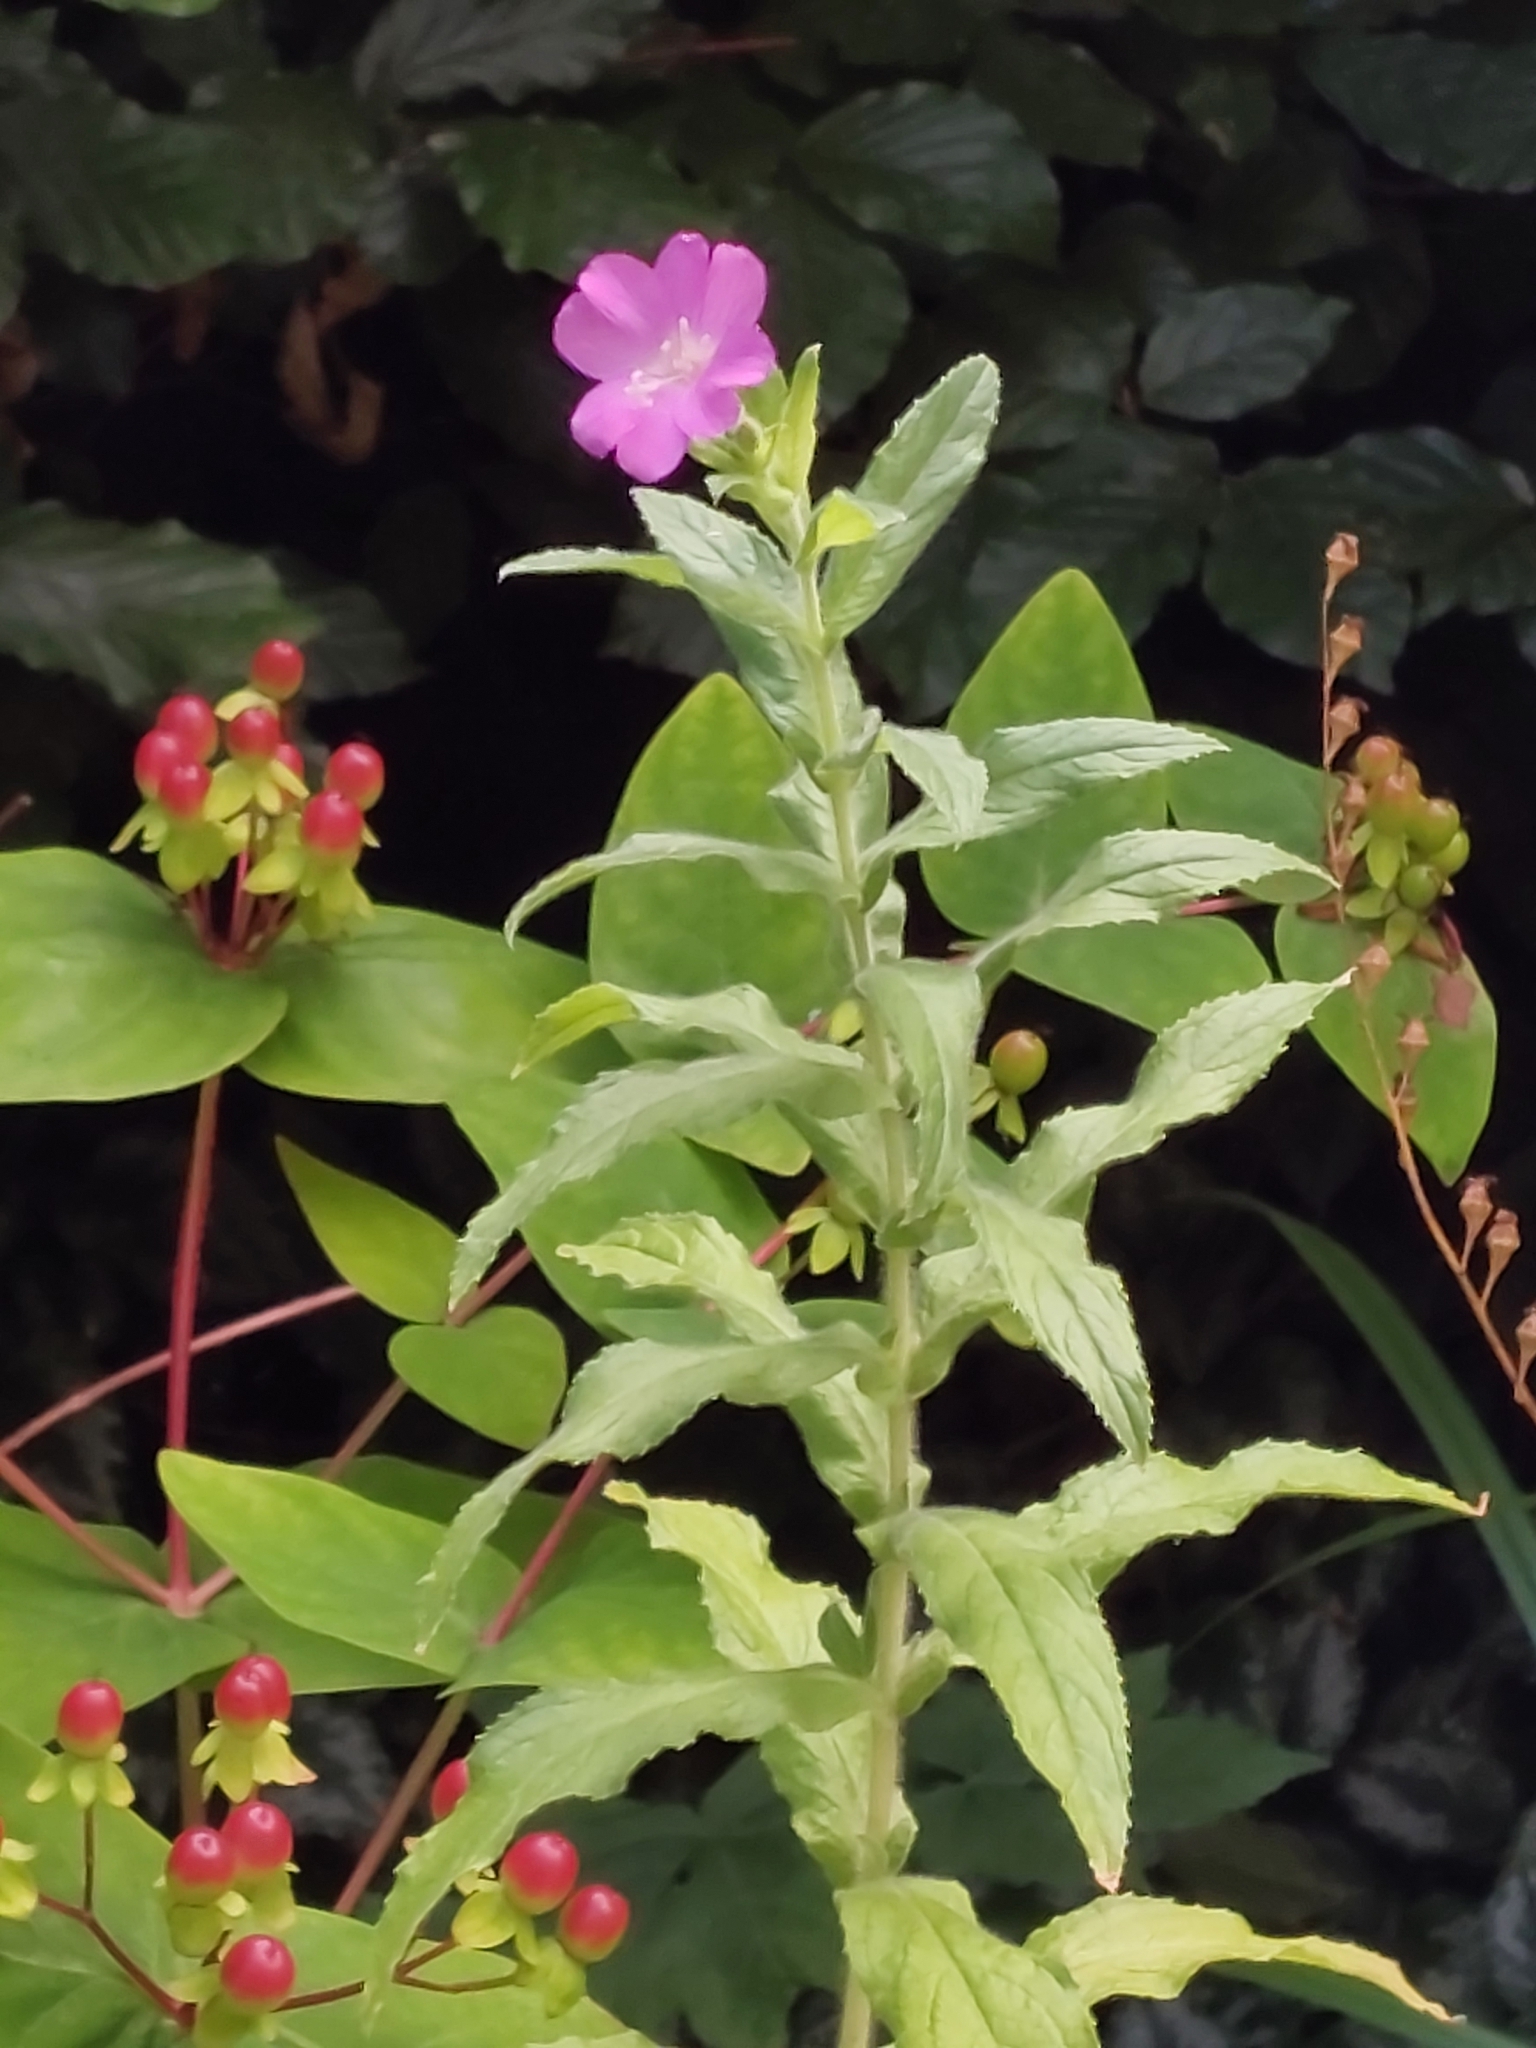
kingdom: Plantae
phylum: Tracheophyta
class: Magnoliopsida
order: Myrtales
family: Onagraceae
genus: Epilobium
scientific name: Epilobium hirsutum
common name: Great willowherb
